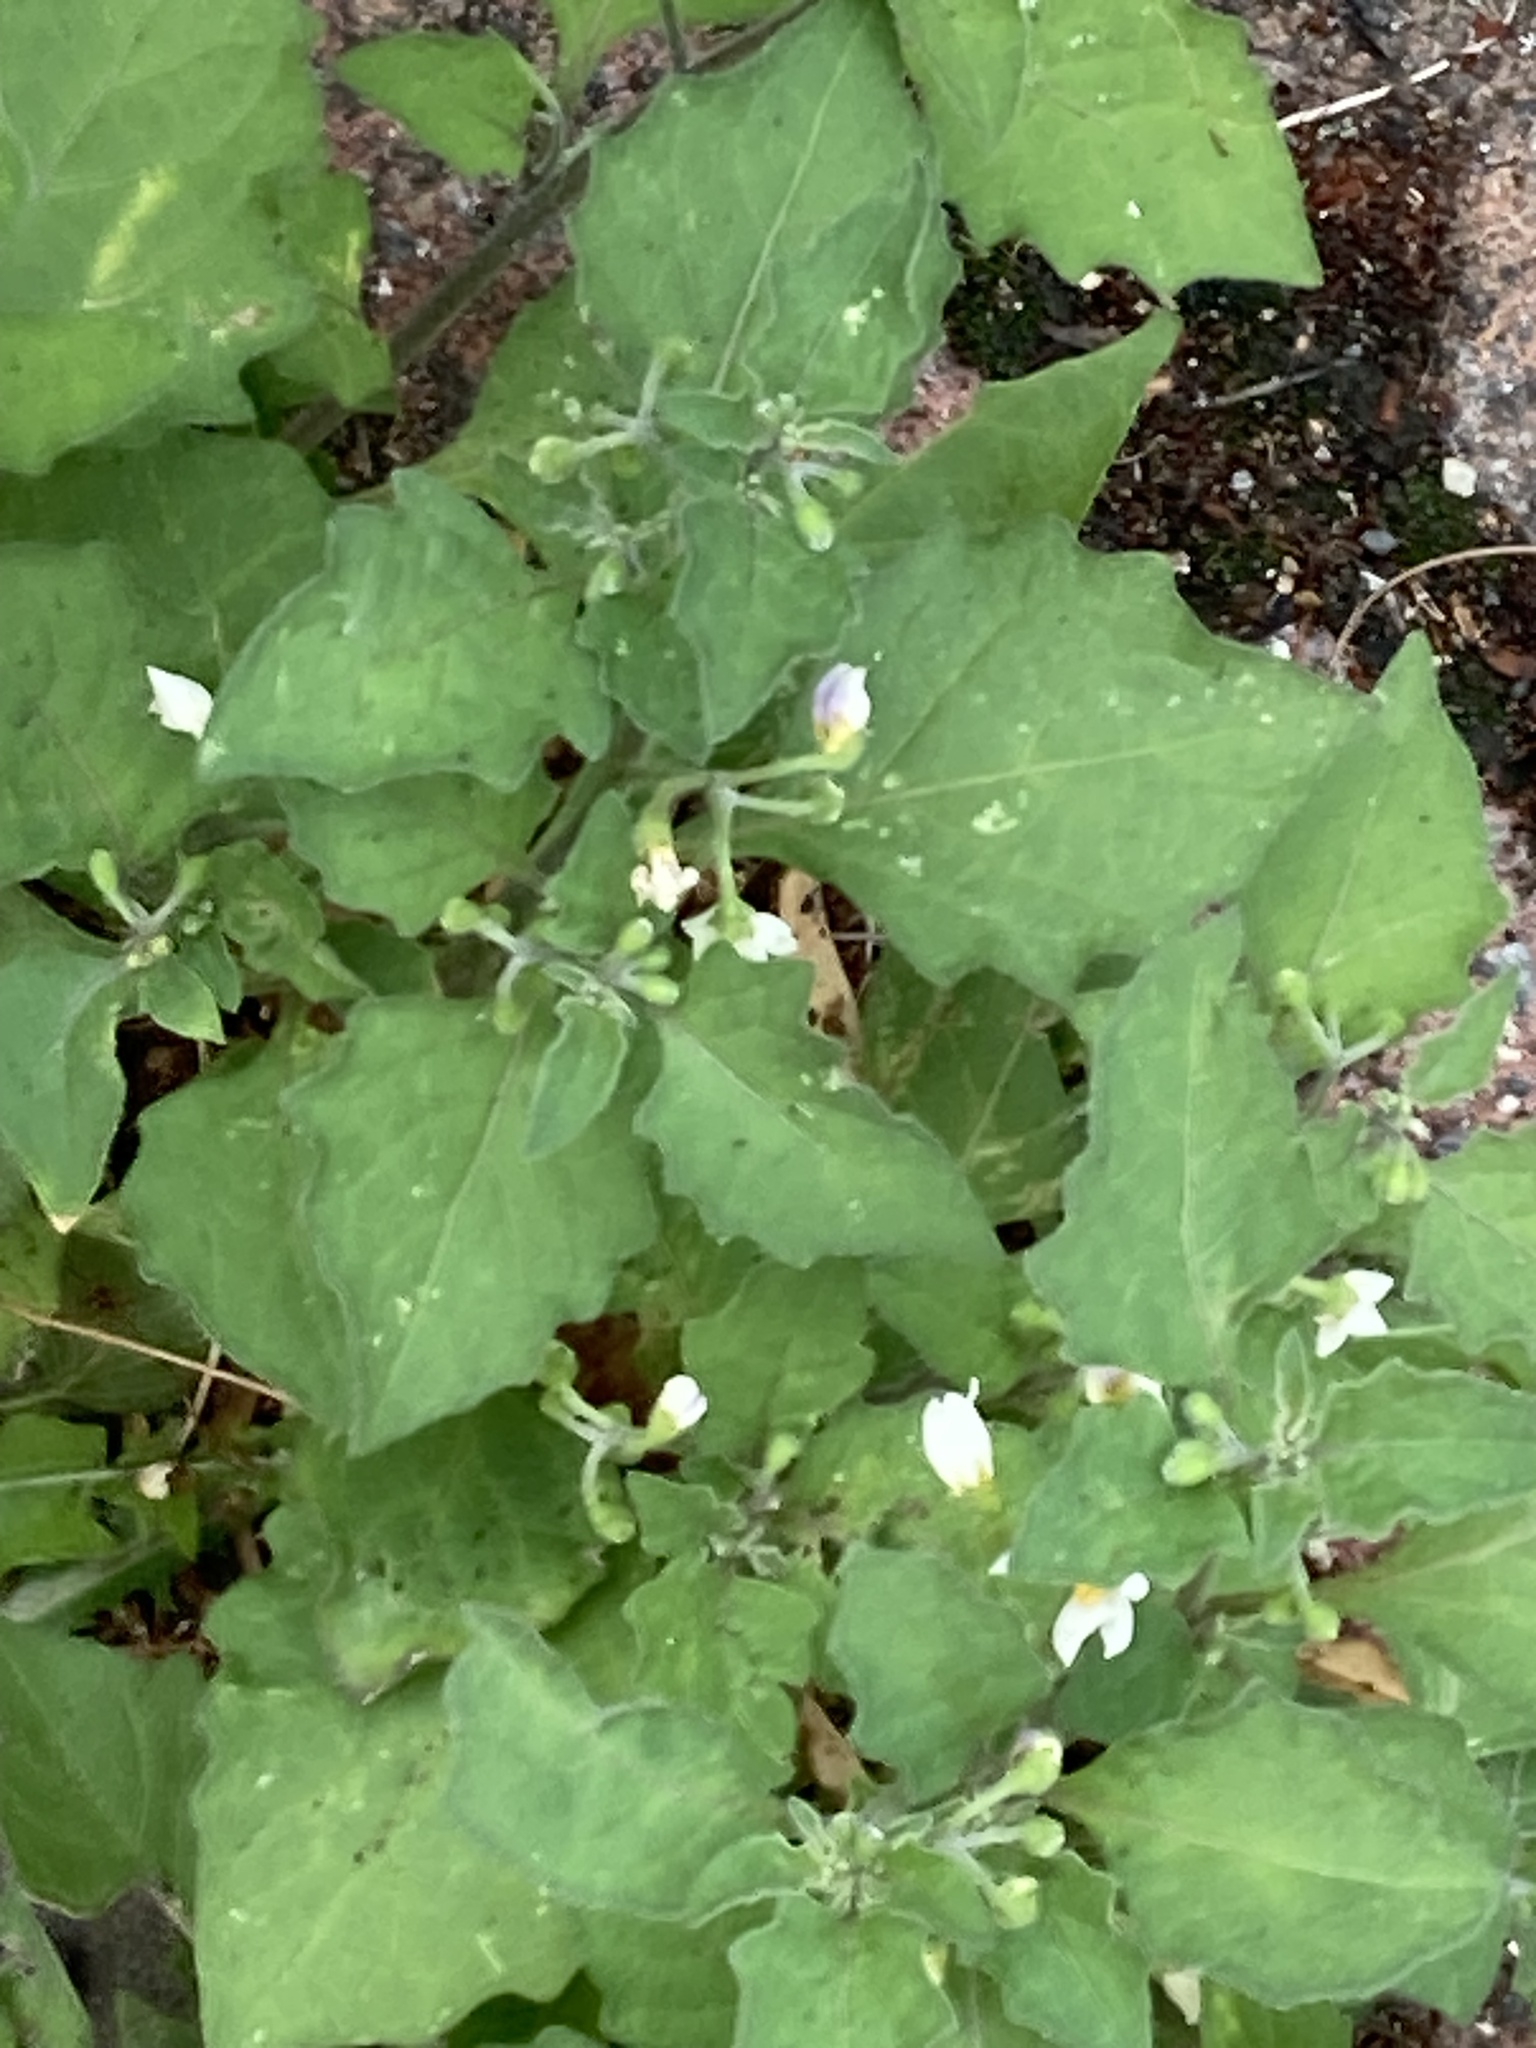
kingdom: Plantae
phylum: Tracheophyta
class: Magnoliopsida
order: Solanales
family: Solanaceae
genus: Solanum
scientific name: Solanum nigrum
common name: Black nightshade
